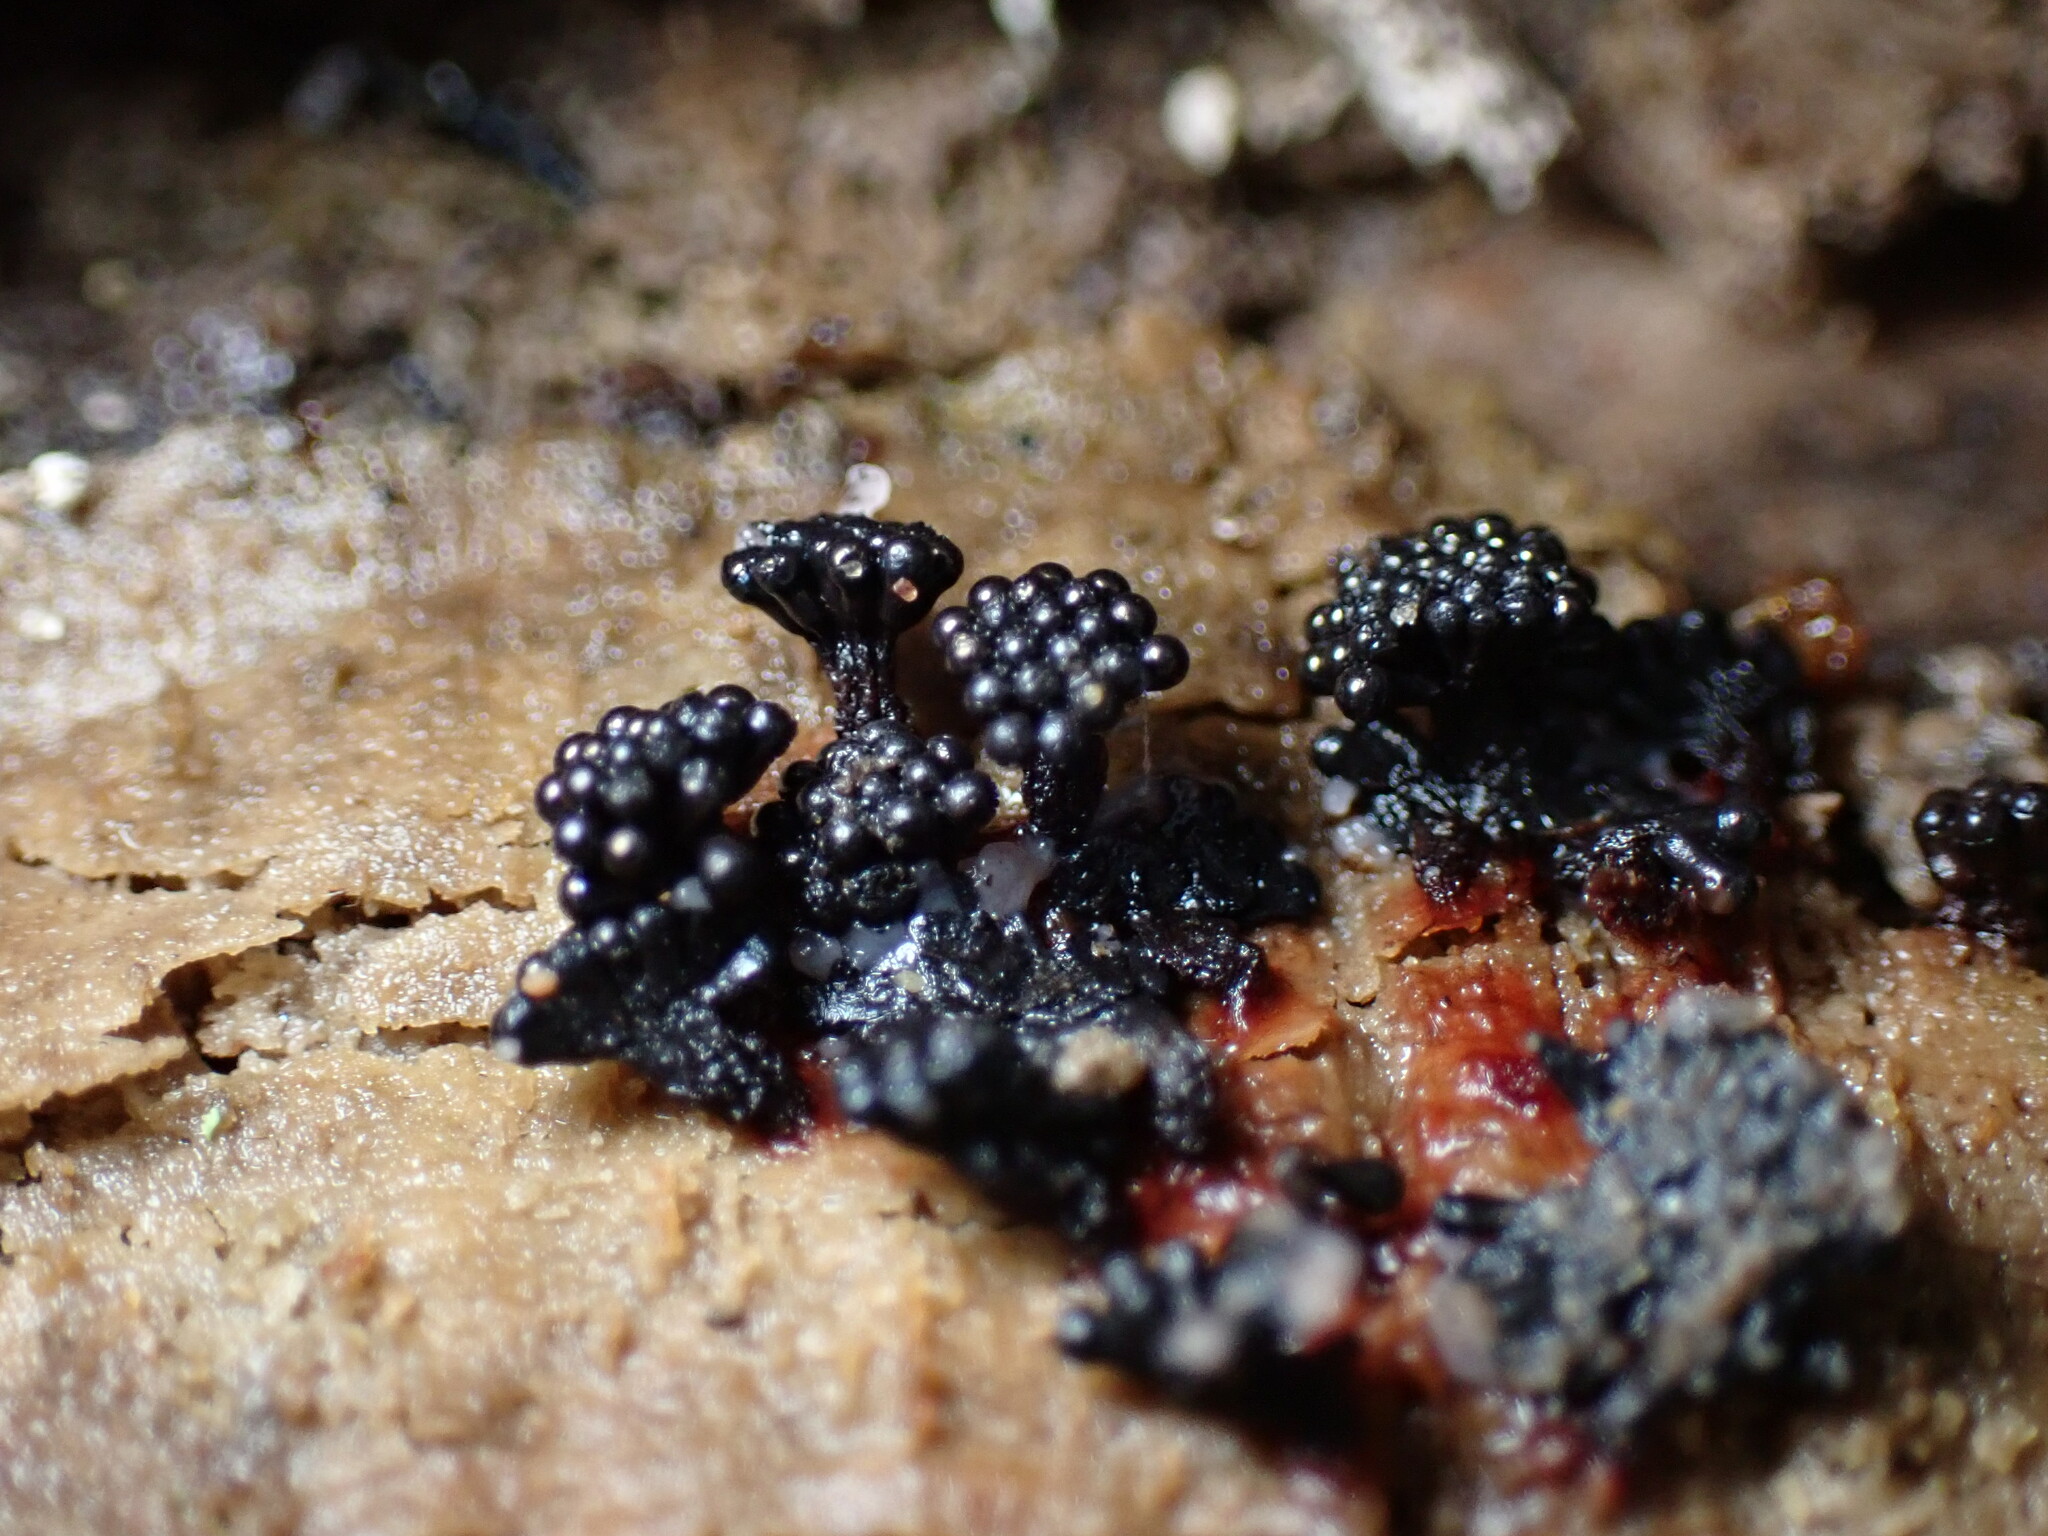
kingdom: Protozoa
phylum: Mycetozoa
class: Myxomycetes
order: Trichiales
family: Trichiaceae
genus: Metatrichia
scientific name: Metatrichia vesparia
